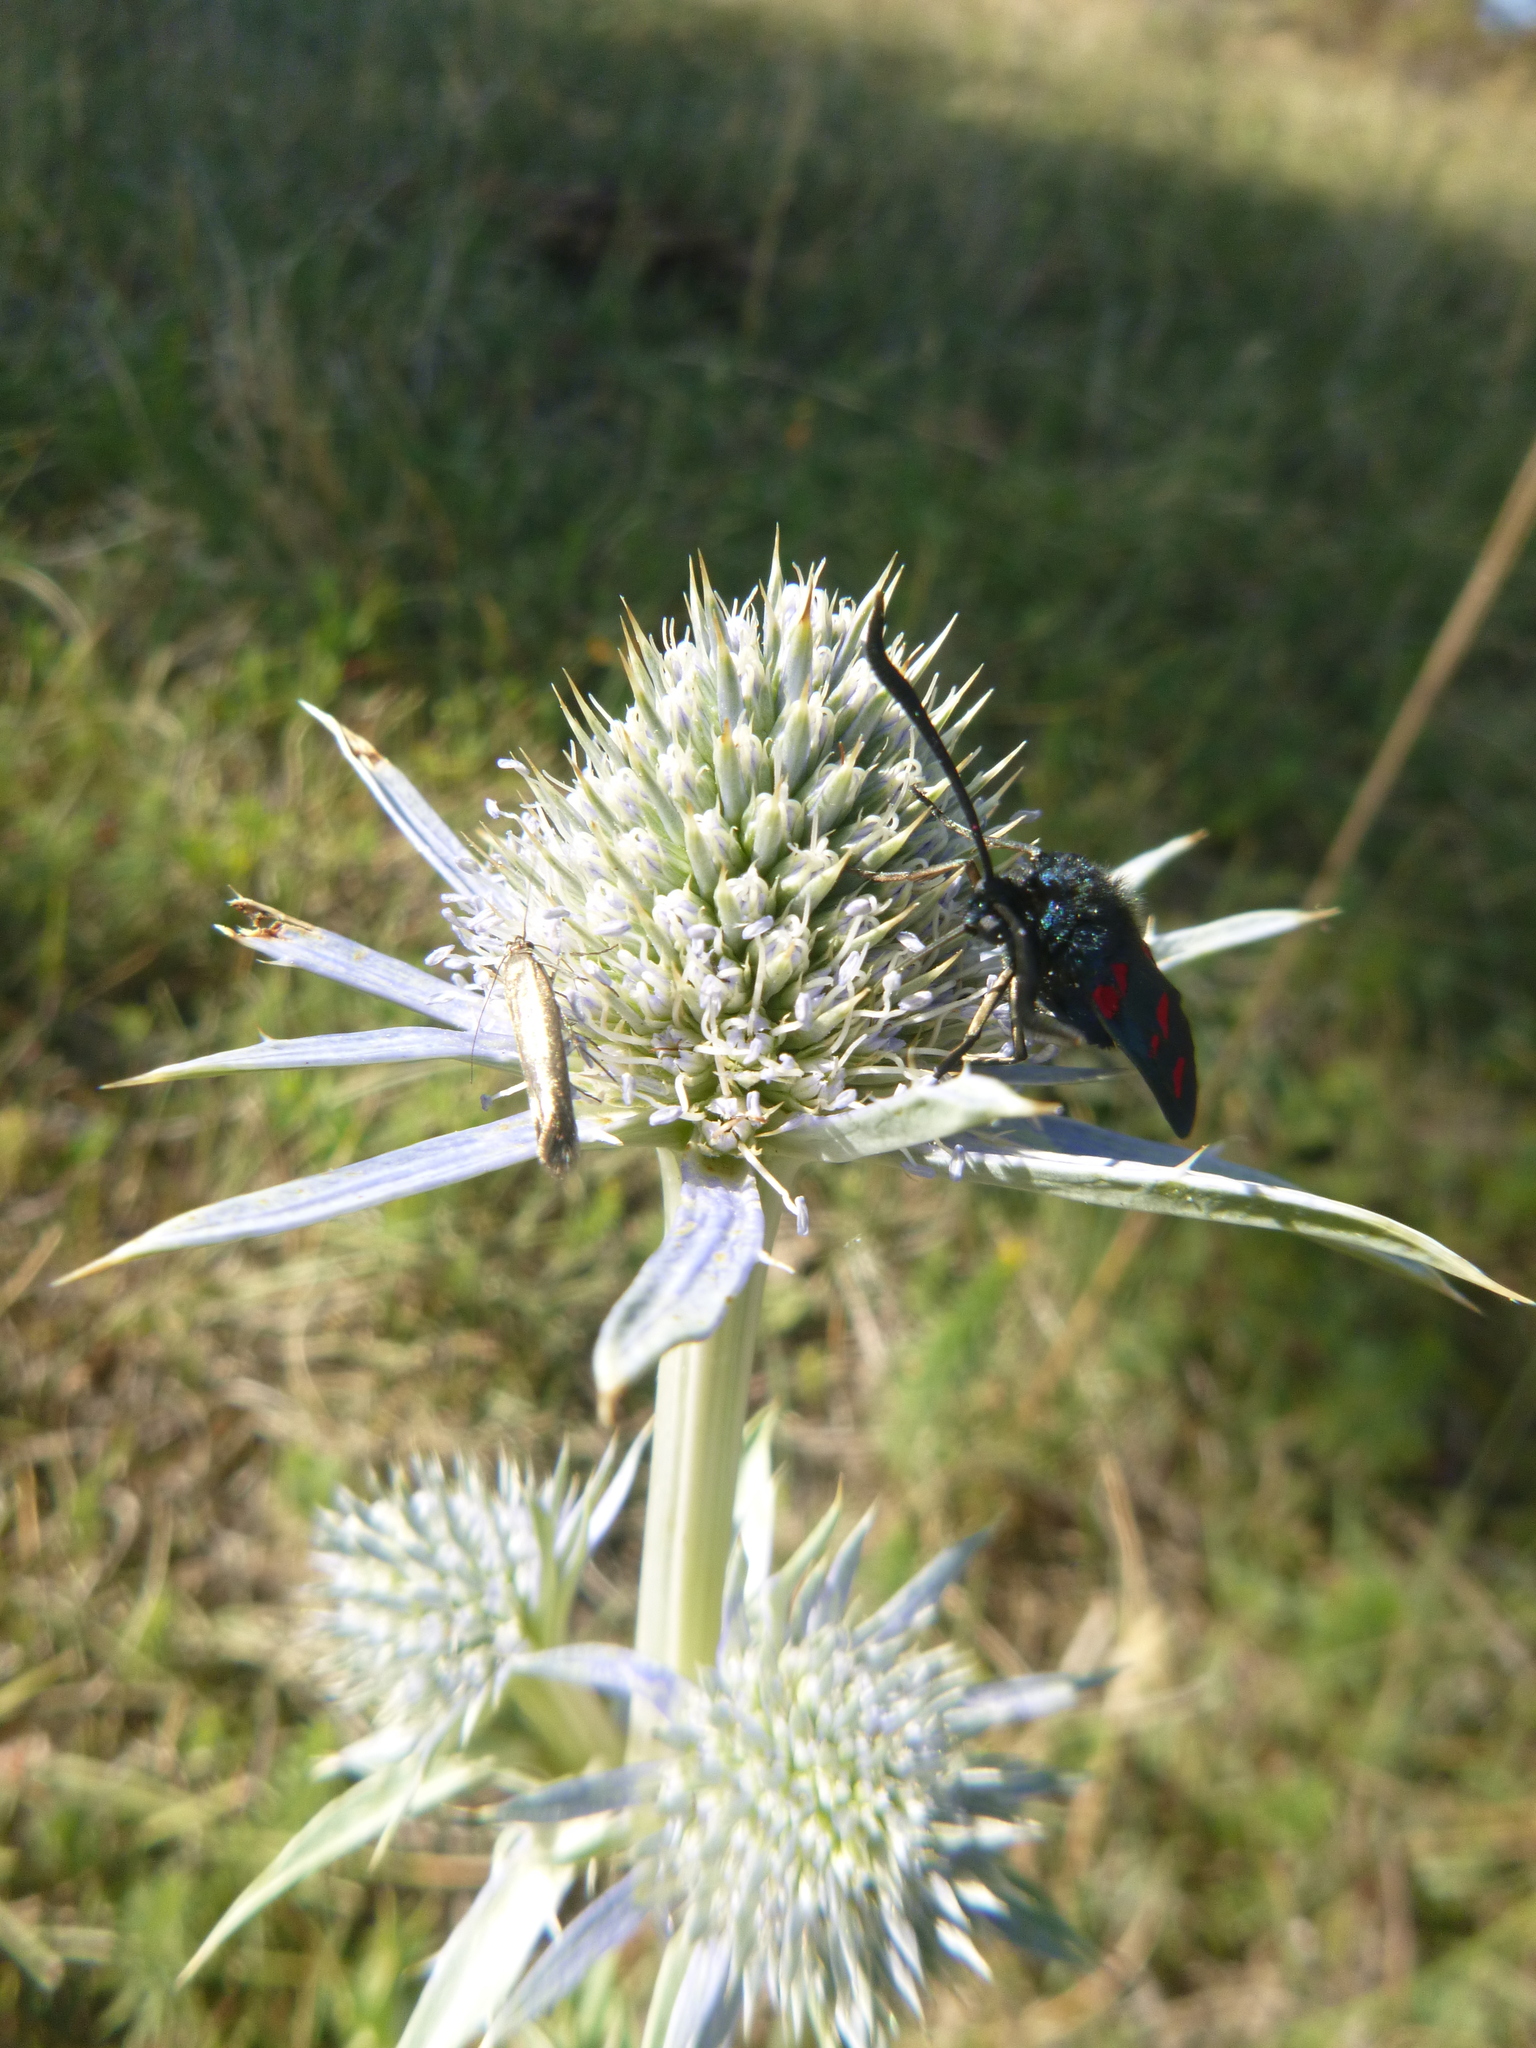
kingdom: Plantae
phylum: Tracheophyta
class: Magnoliopsida
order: Apiales
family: Apiaceae
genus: Eryngium
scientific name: Eryngium bourgatii
